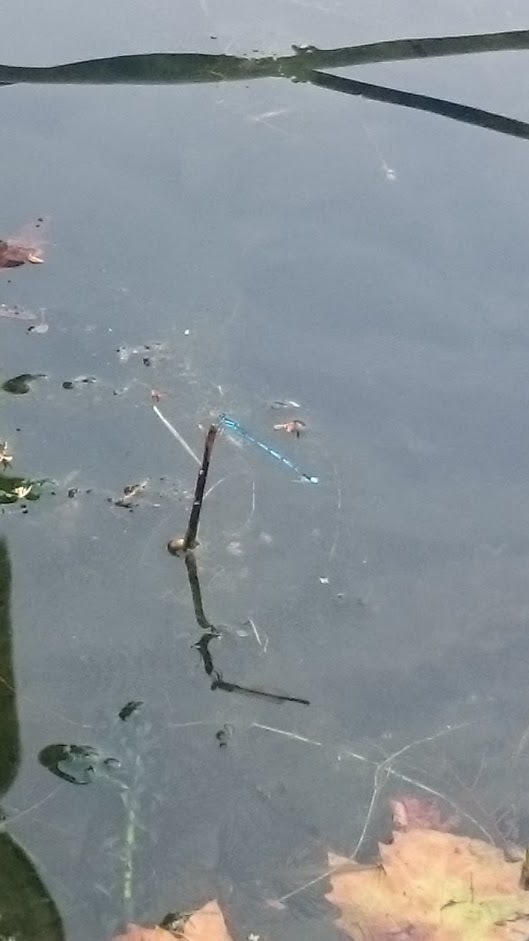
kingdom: Animalia
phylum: Arthropoda
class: Insecta
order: Odonata
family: Coenagrionidae
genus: Erythromma
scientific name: Erythromma lindenii
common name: Blue-eye
